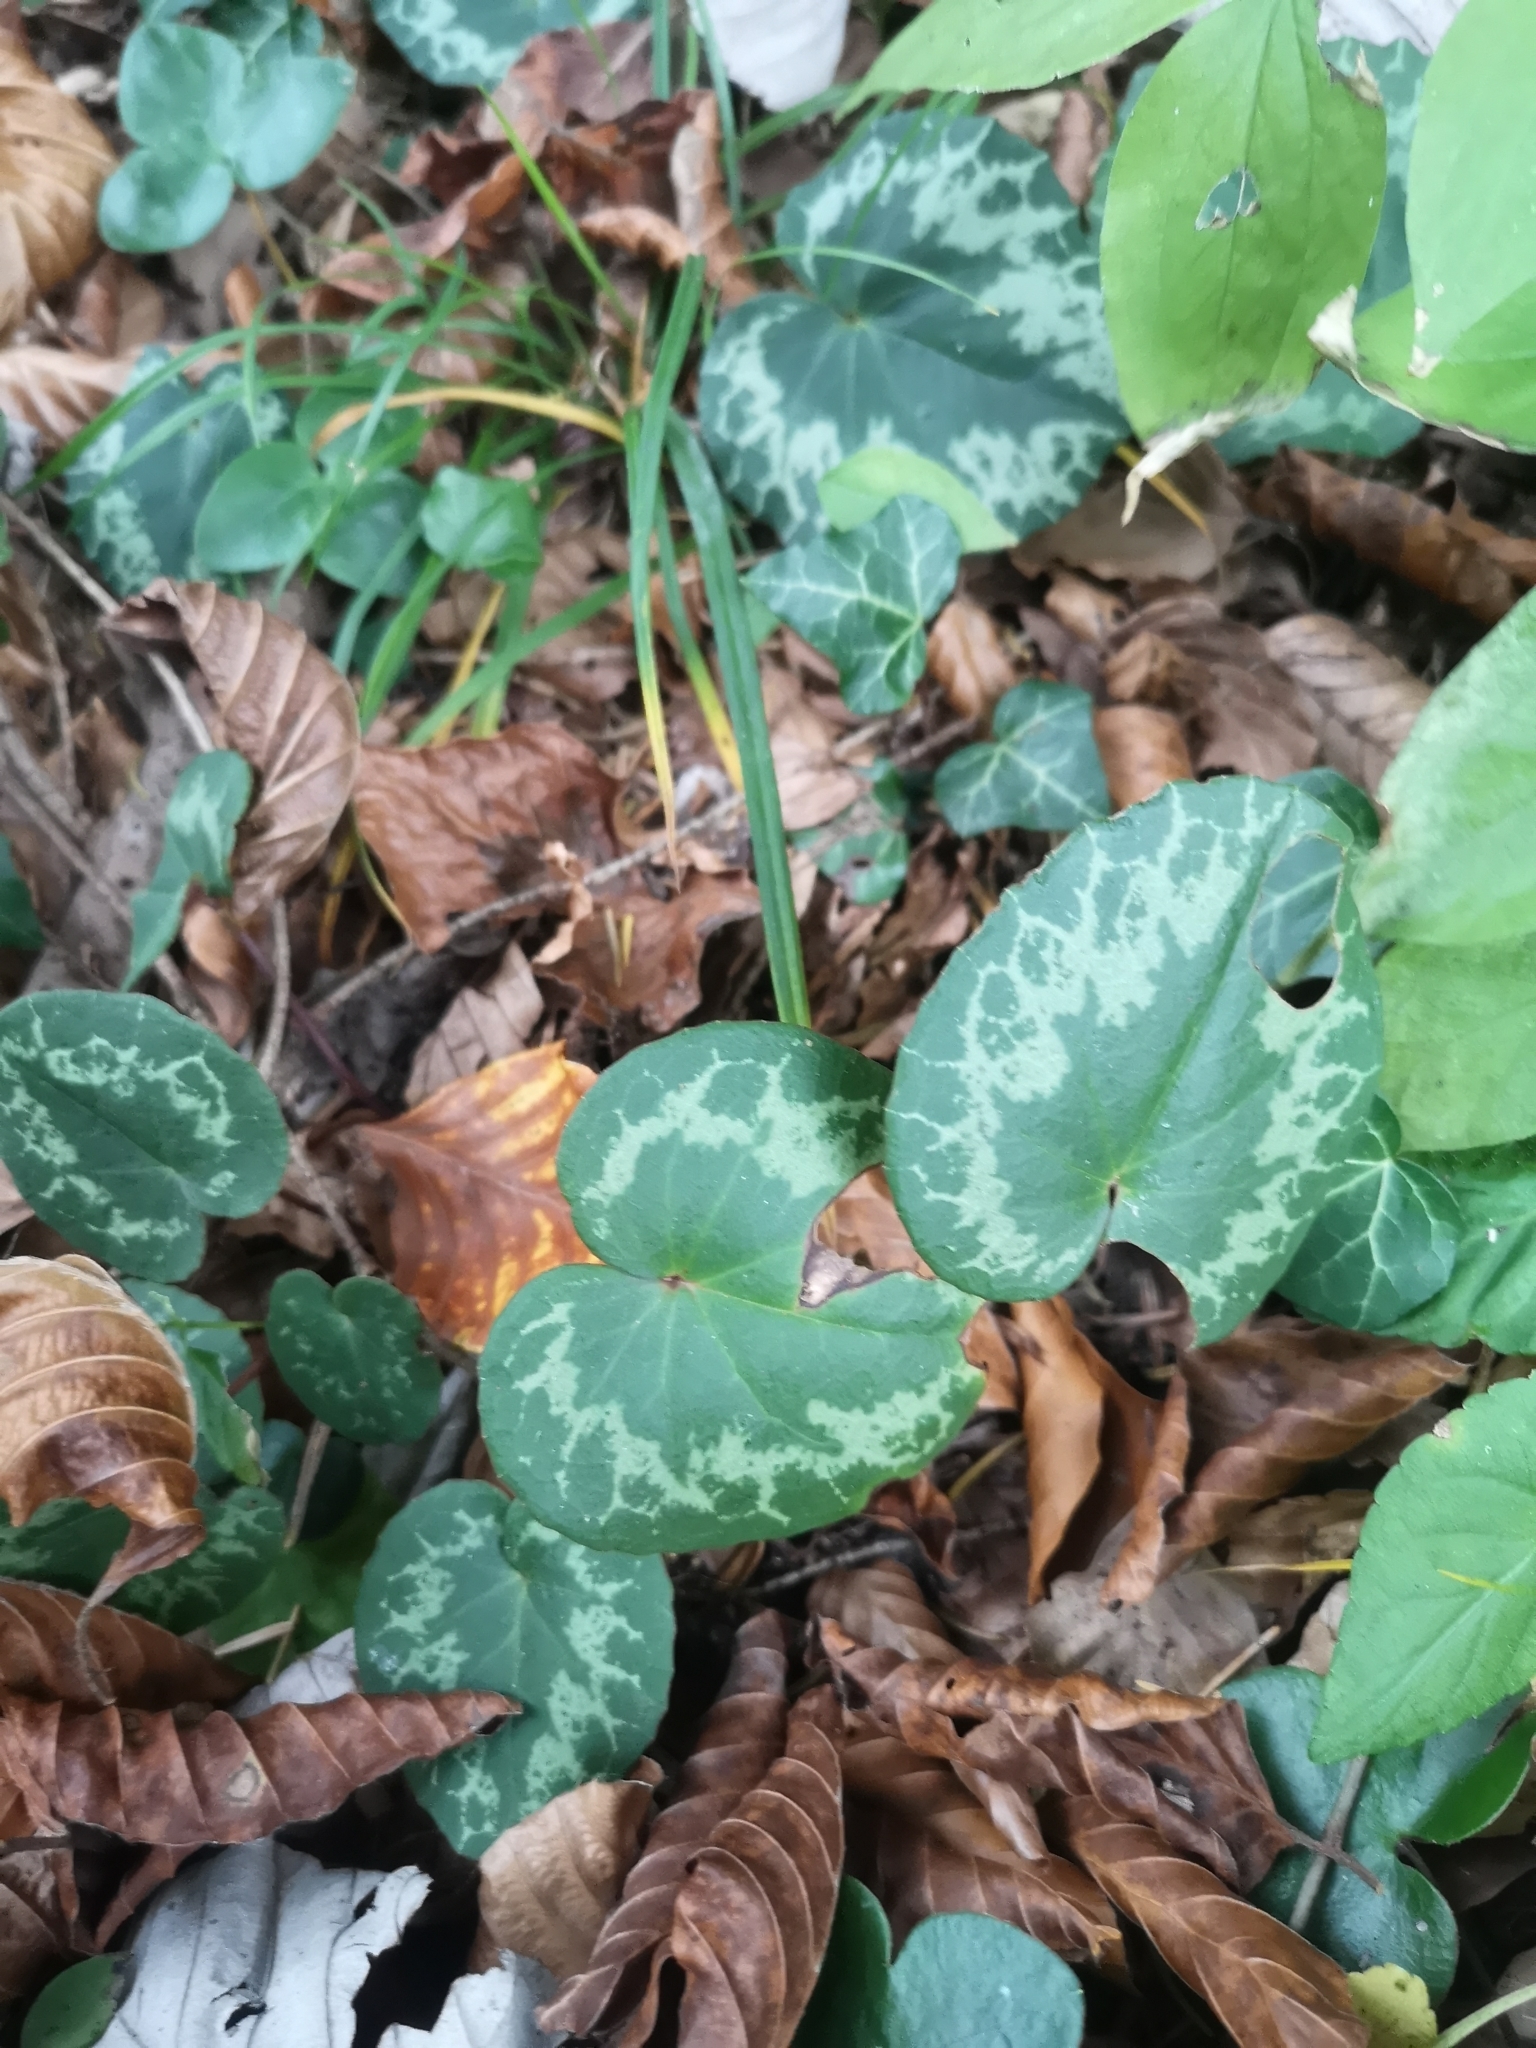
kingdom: Plantae
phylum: Tracheophyta
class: Magnoliopsida
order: Ericales
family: Primulaceae
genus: Cyclamen
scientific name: Cyclamen purpurascens
